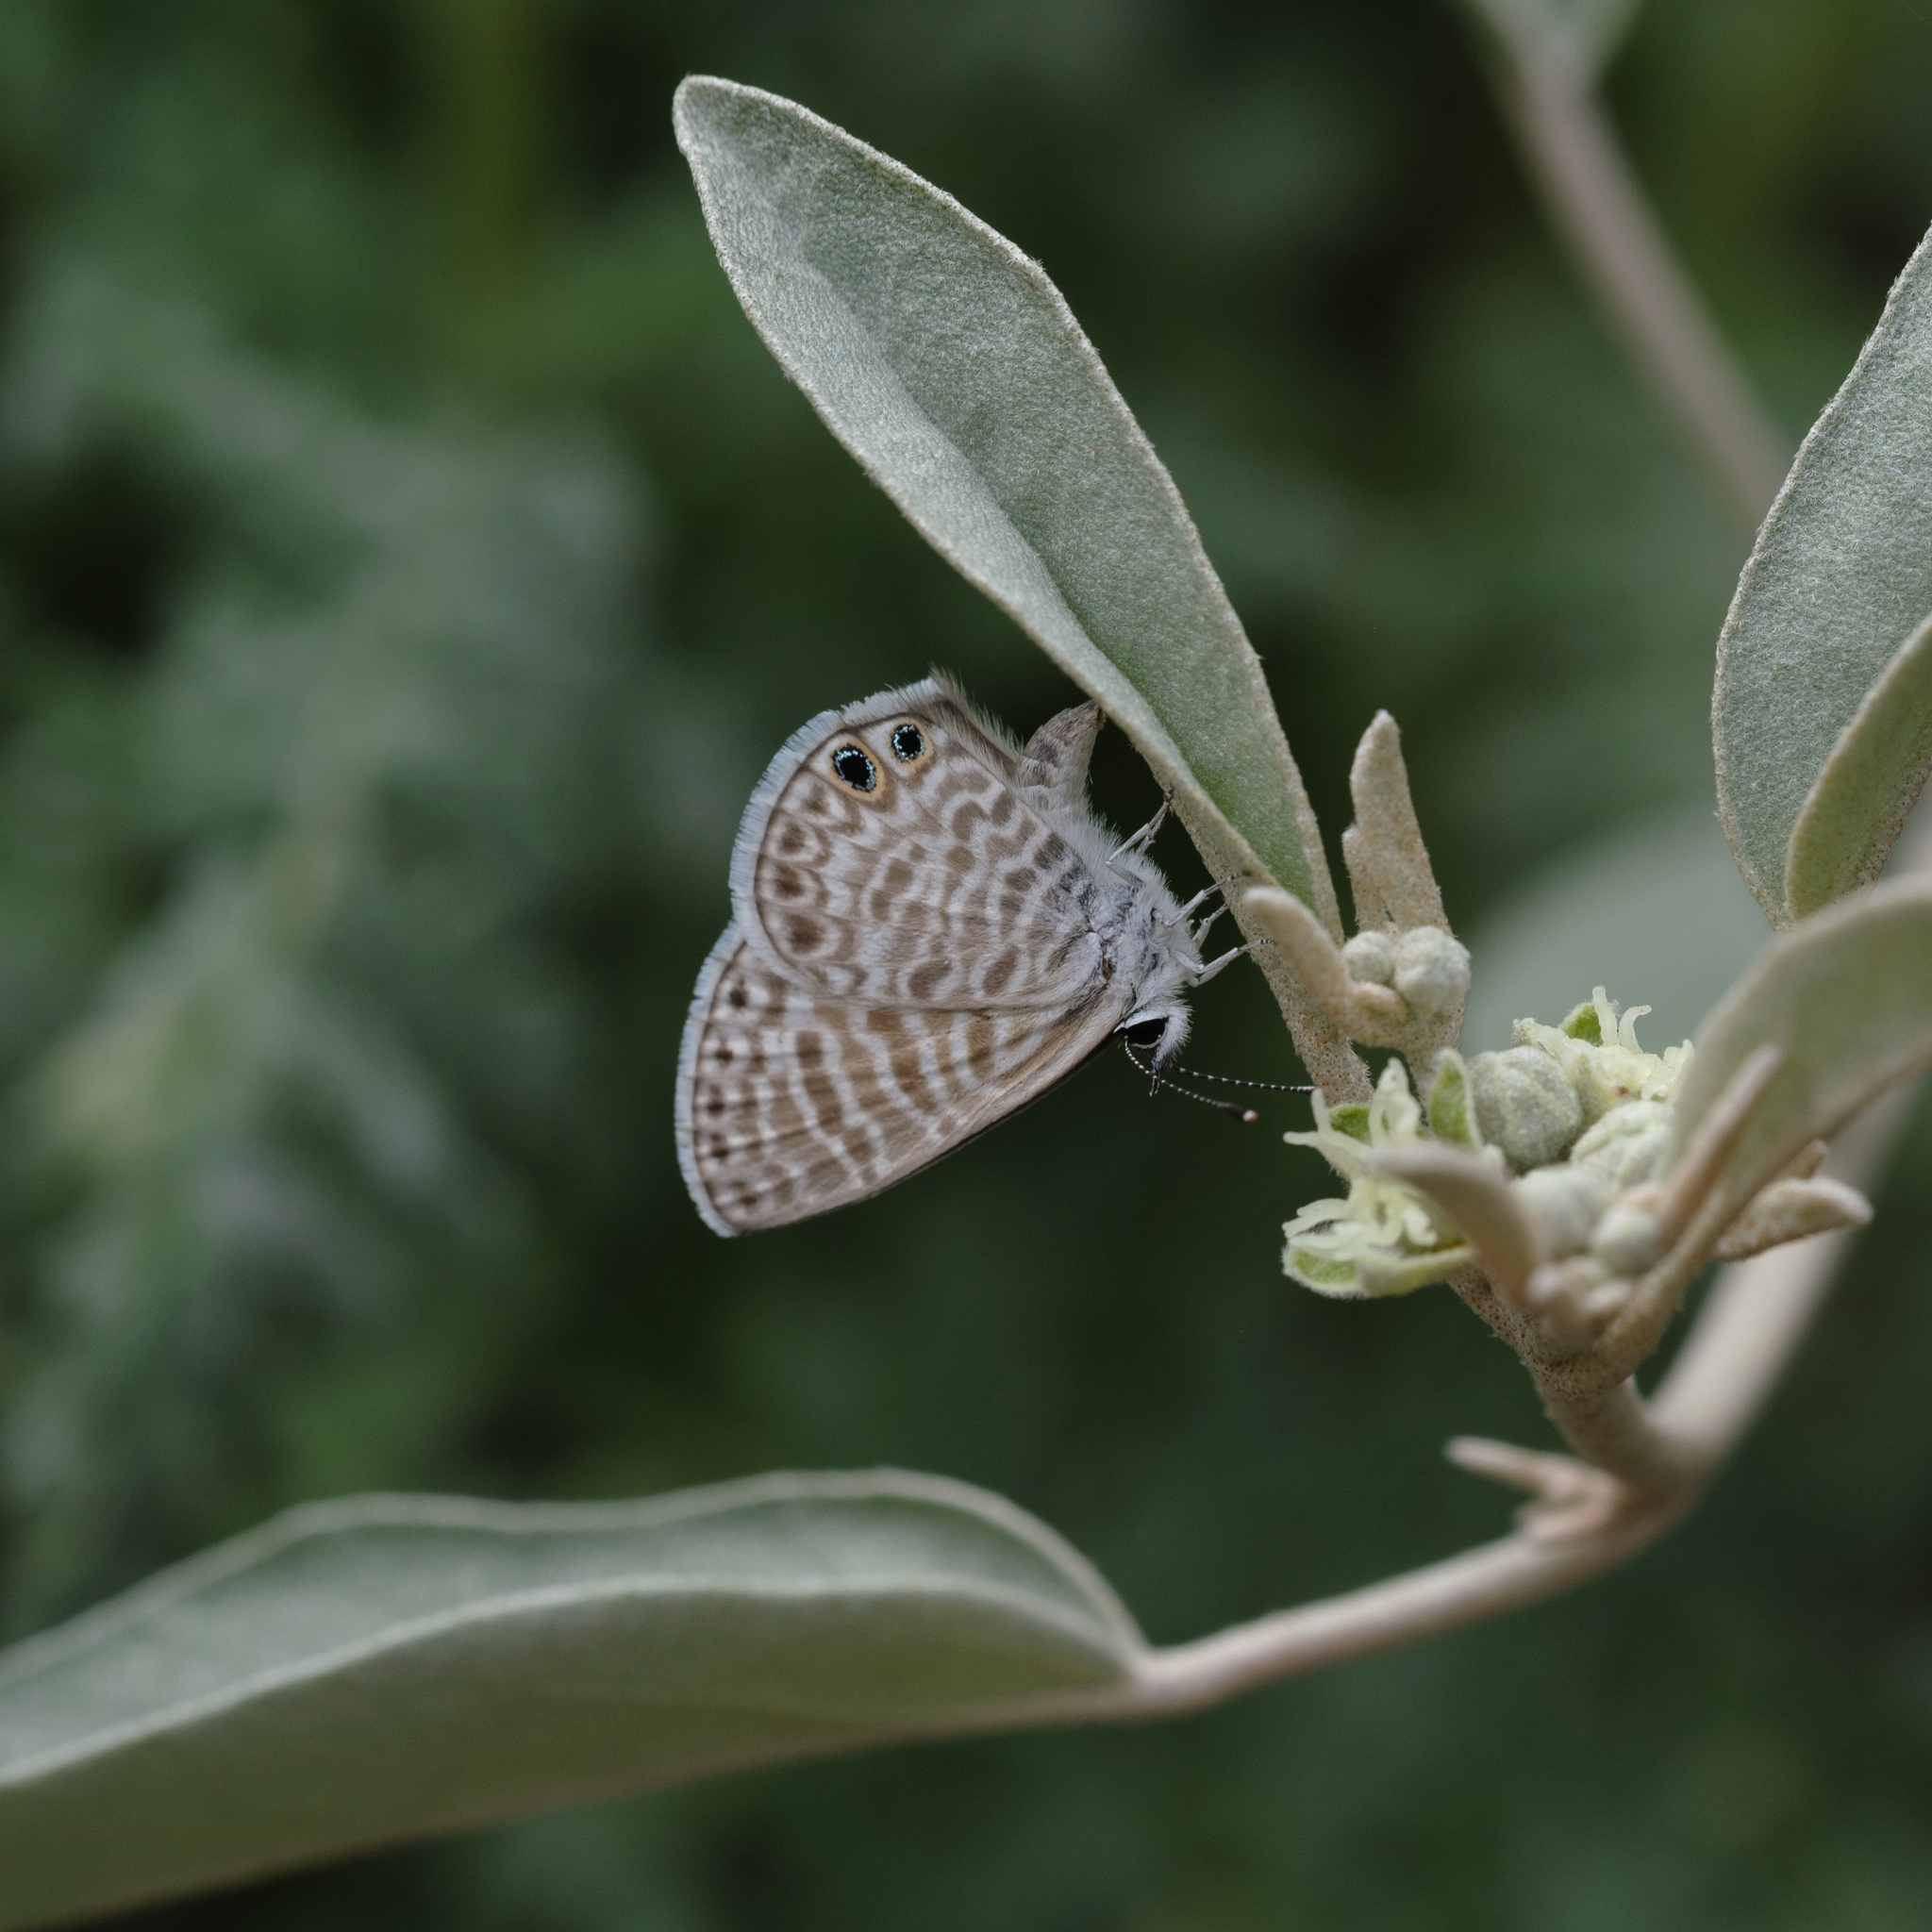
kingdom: Animalia
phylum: Arthropoda
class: Insecta
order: Lepidoptera
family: Lycaenidae
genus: Leptotes
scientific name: Leptotes marina
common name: Marine blue
